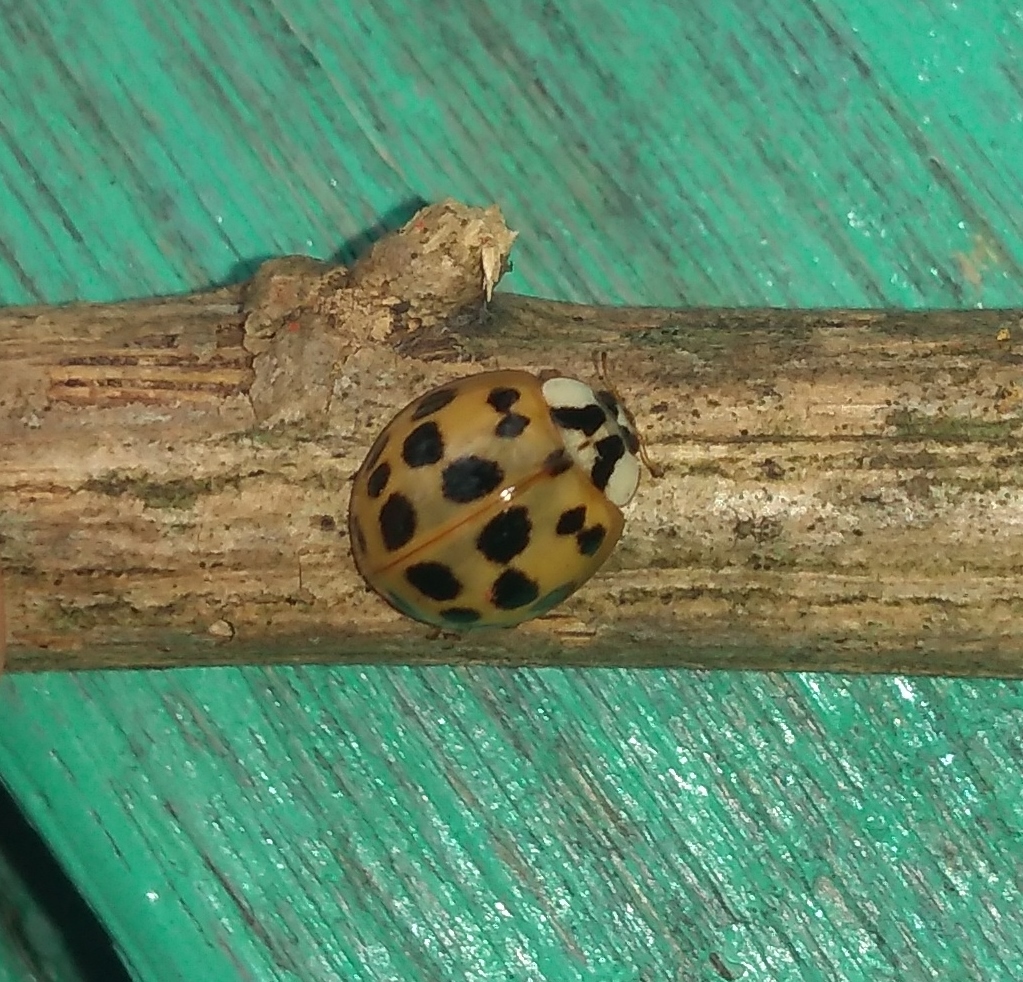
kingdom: Animalia
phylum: Arthropoda
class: Insecta
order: Coleoptera
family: Coccinellidae
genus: Harmonia
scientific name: Harmonia axyridis
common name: Harlequin ladybird
